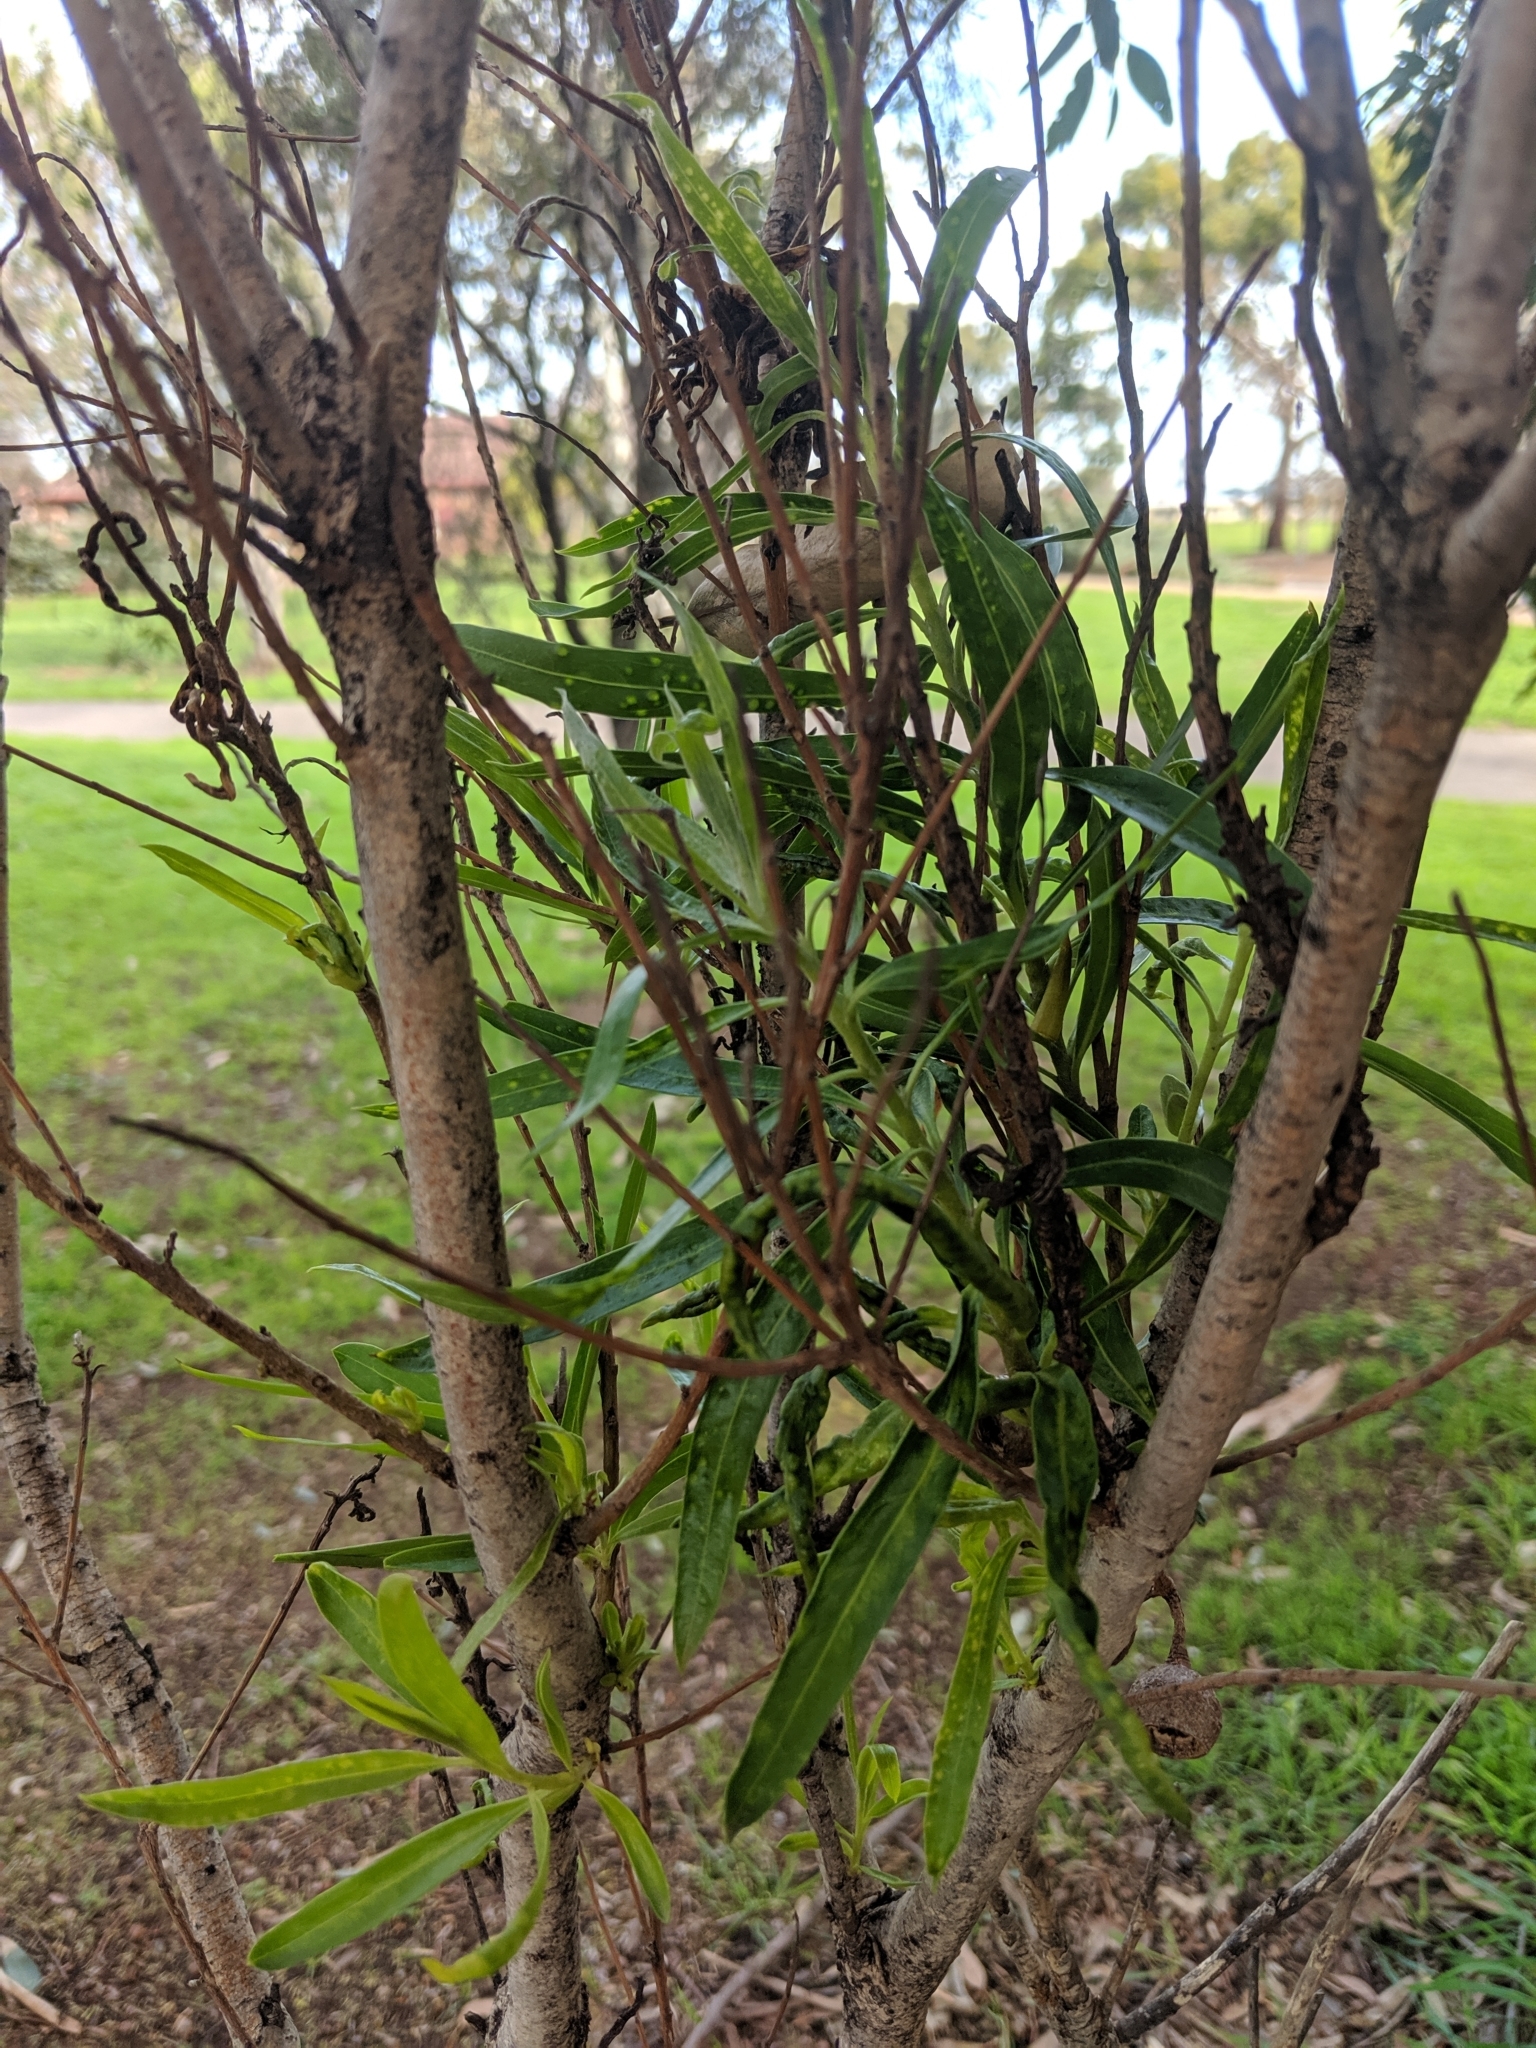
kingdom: Plantae
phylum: Tracheophyta
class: Magnoliopsida
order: Apiales
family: Pittosporaceae
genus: Pittosporum
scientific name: Pittosporum angustifolium
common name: Weeping pittosporum
